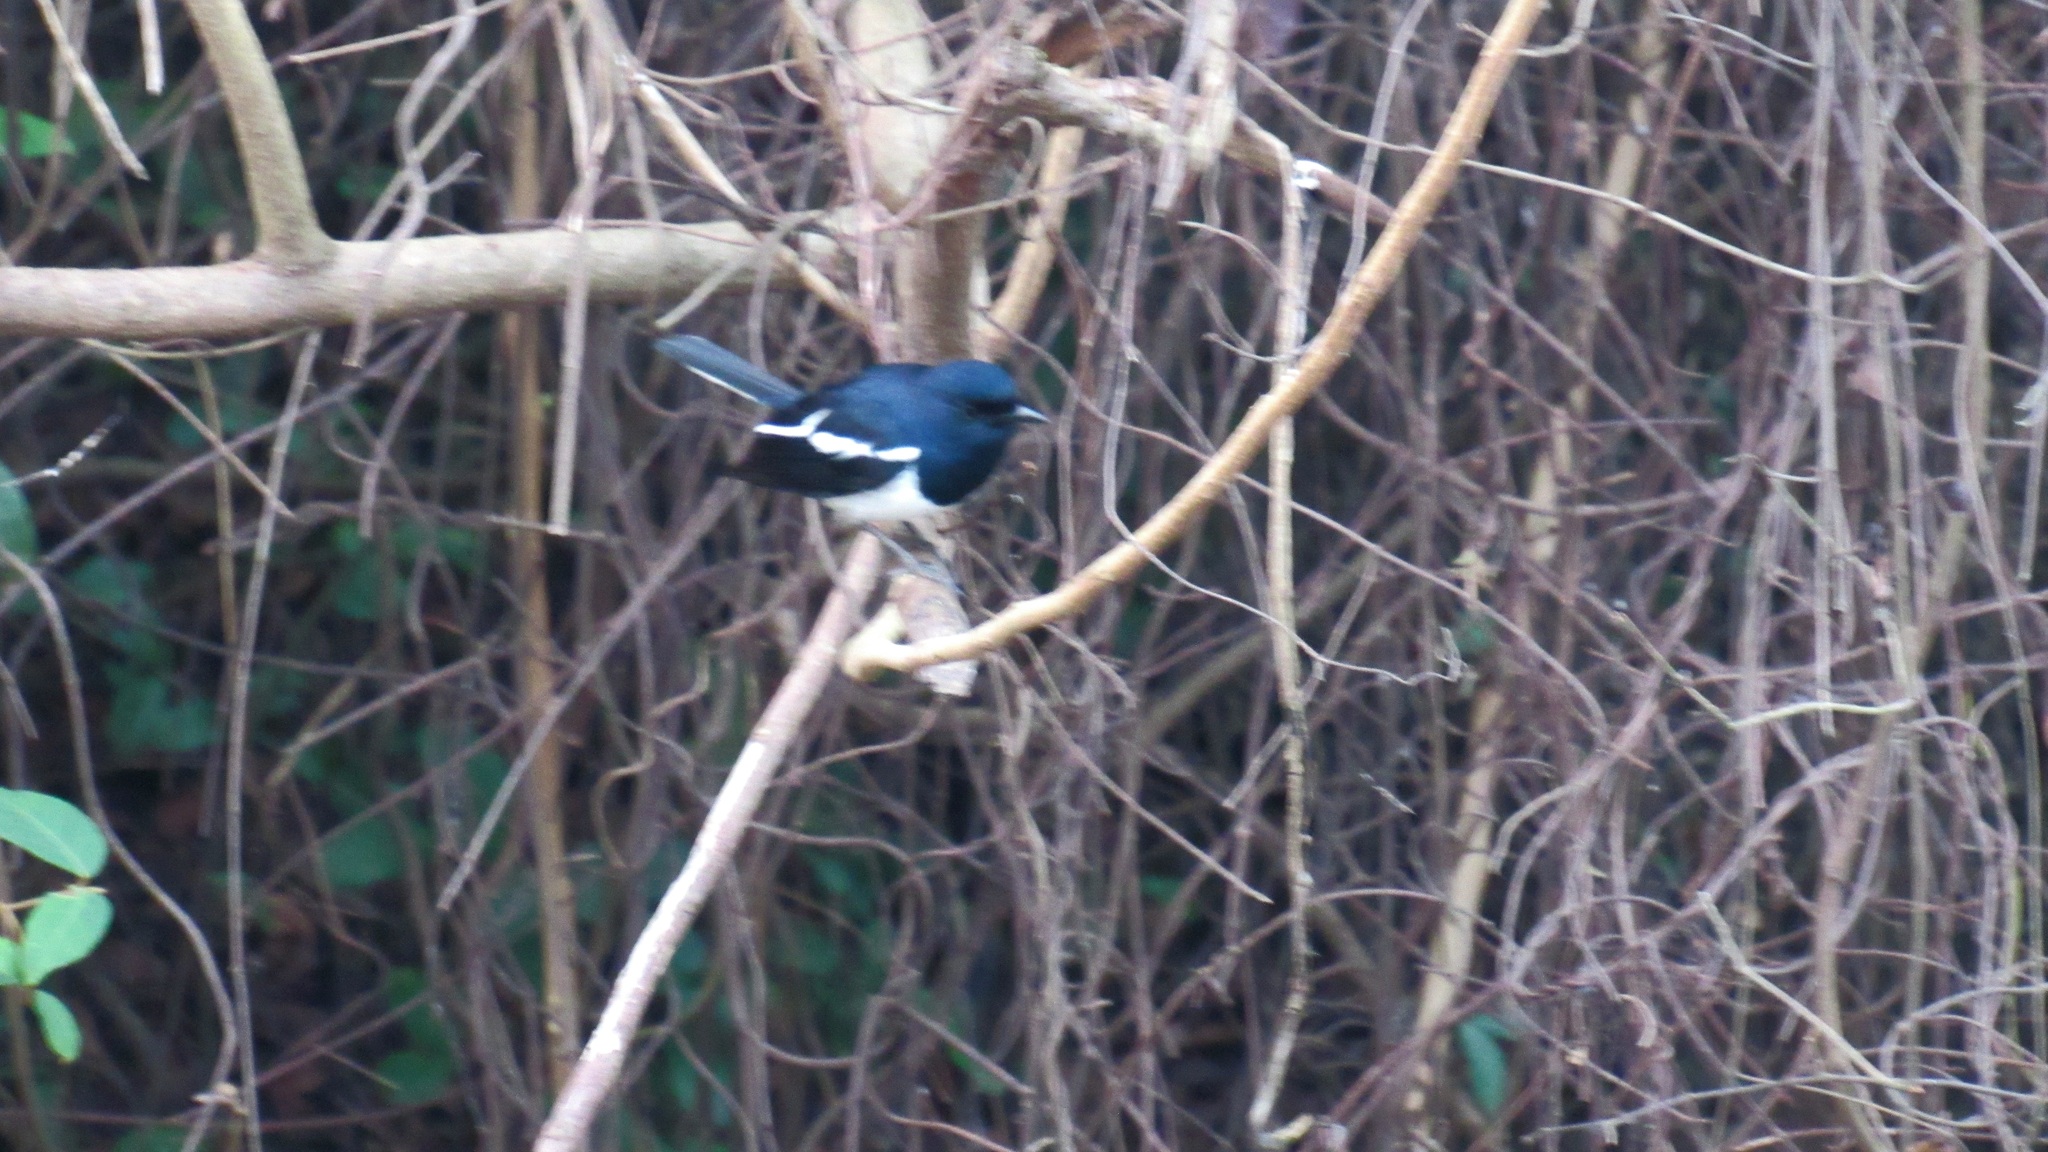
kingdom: Animalia
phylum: Chordata
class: Aves
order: Passeriformes
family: Muscicapidae
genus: Copsychus
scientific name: Copsychus saularis
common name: Oriental magpie-robin
